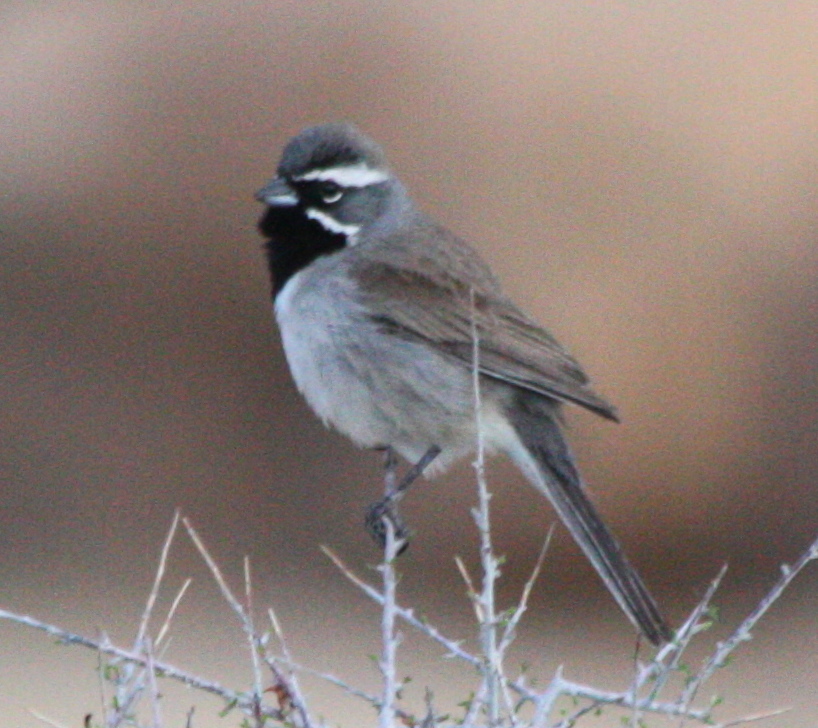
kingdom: Animalia
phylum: Chordata
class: Aves
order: Passeriformes
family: Passerellidae
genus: Amphispiza
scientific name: Amphispiza bilineata
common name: Black-throated sparrow
